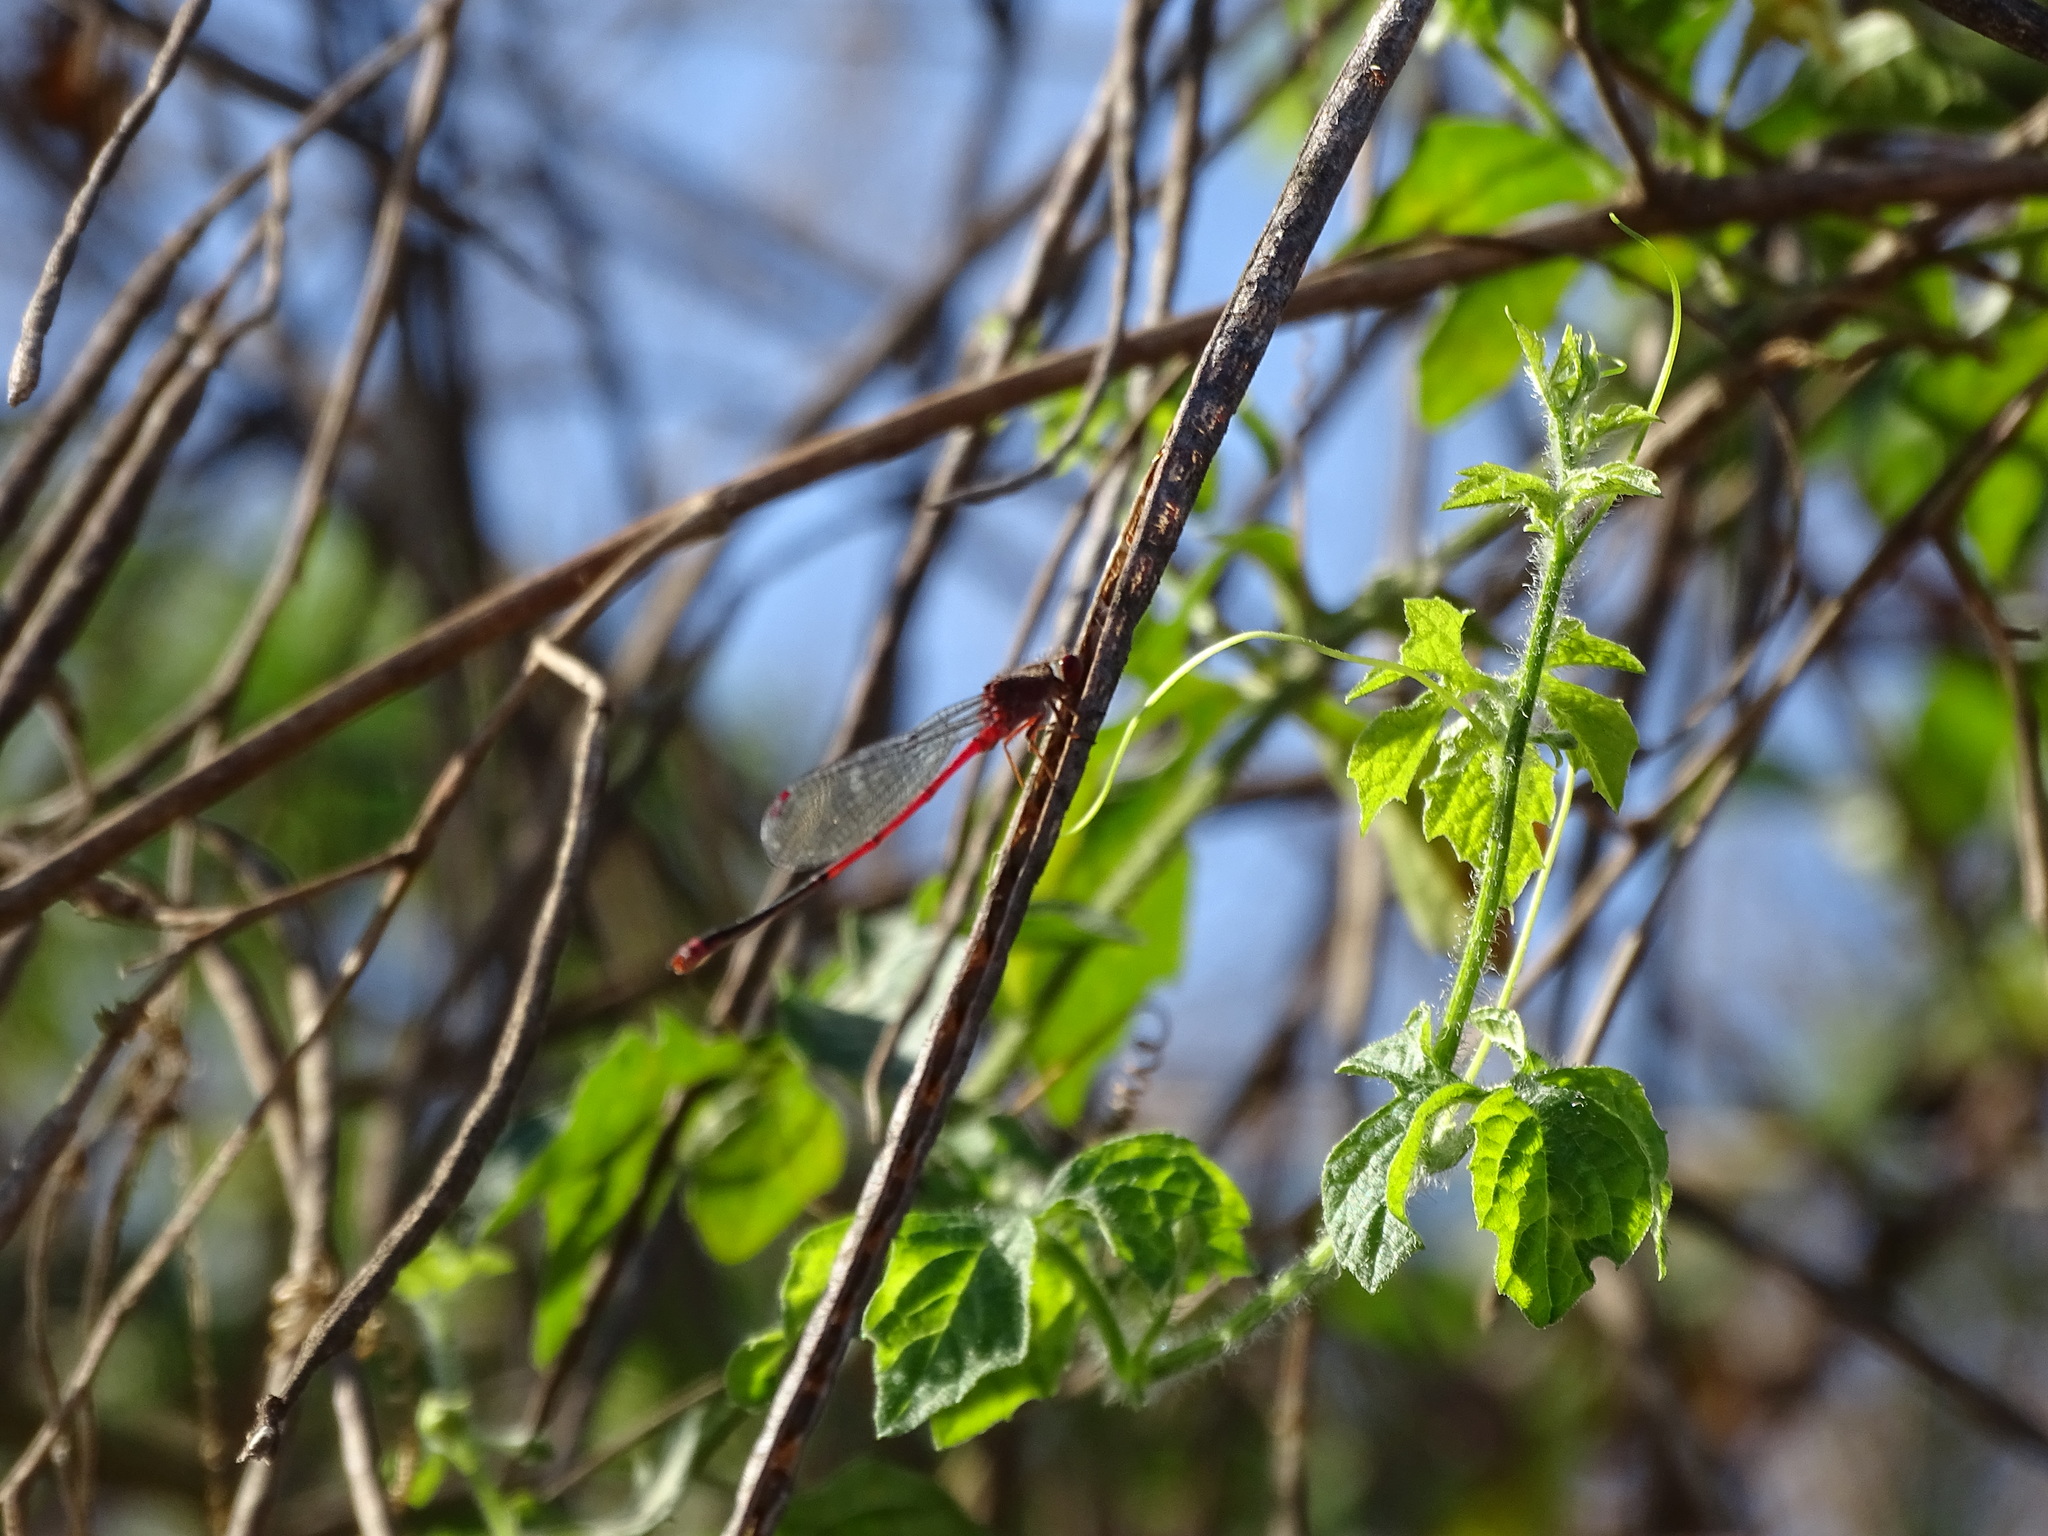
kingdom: Animalia
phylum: Arthropoda
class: Insecta
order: Odonata
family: Coenagrionidae
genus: Pseudagrion
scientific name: Pseudagrion pilidorsum
